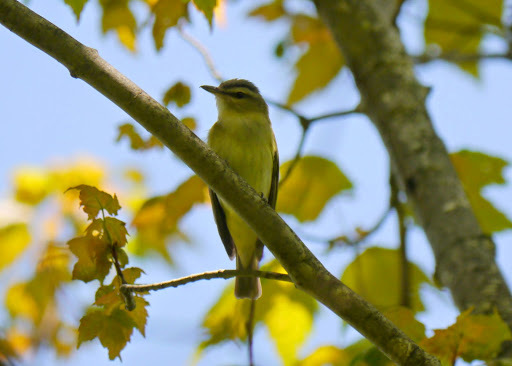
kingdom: Animalia
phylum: Chordata
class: Aves
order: Passeriformes
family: Vireonidae
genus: Vireo
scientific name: Vireo olivaceus
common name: Red-eyed vireo
